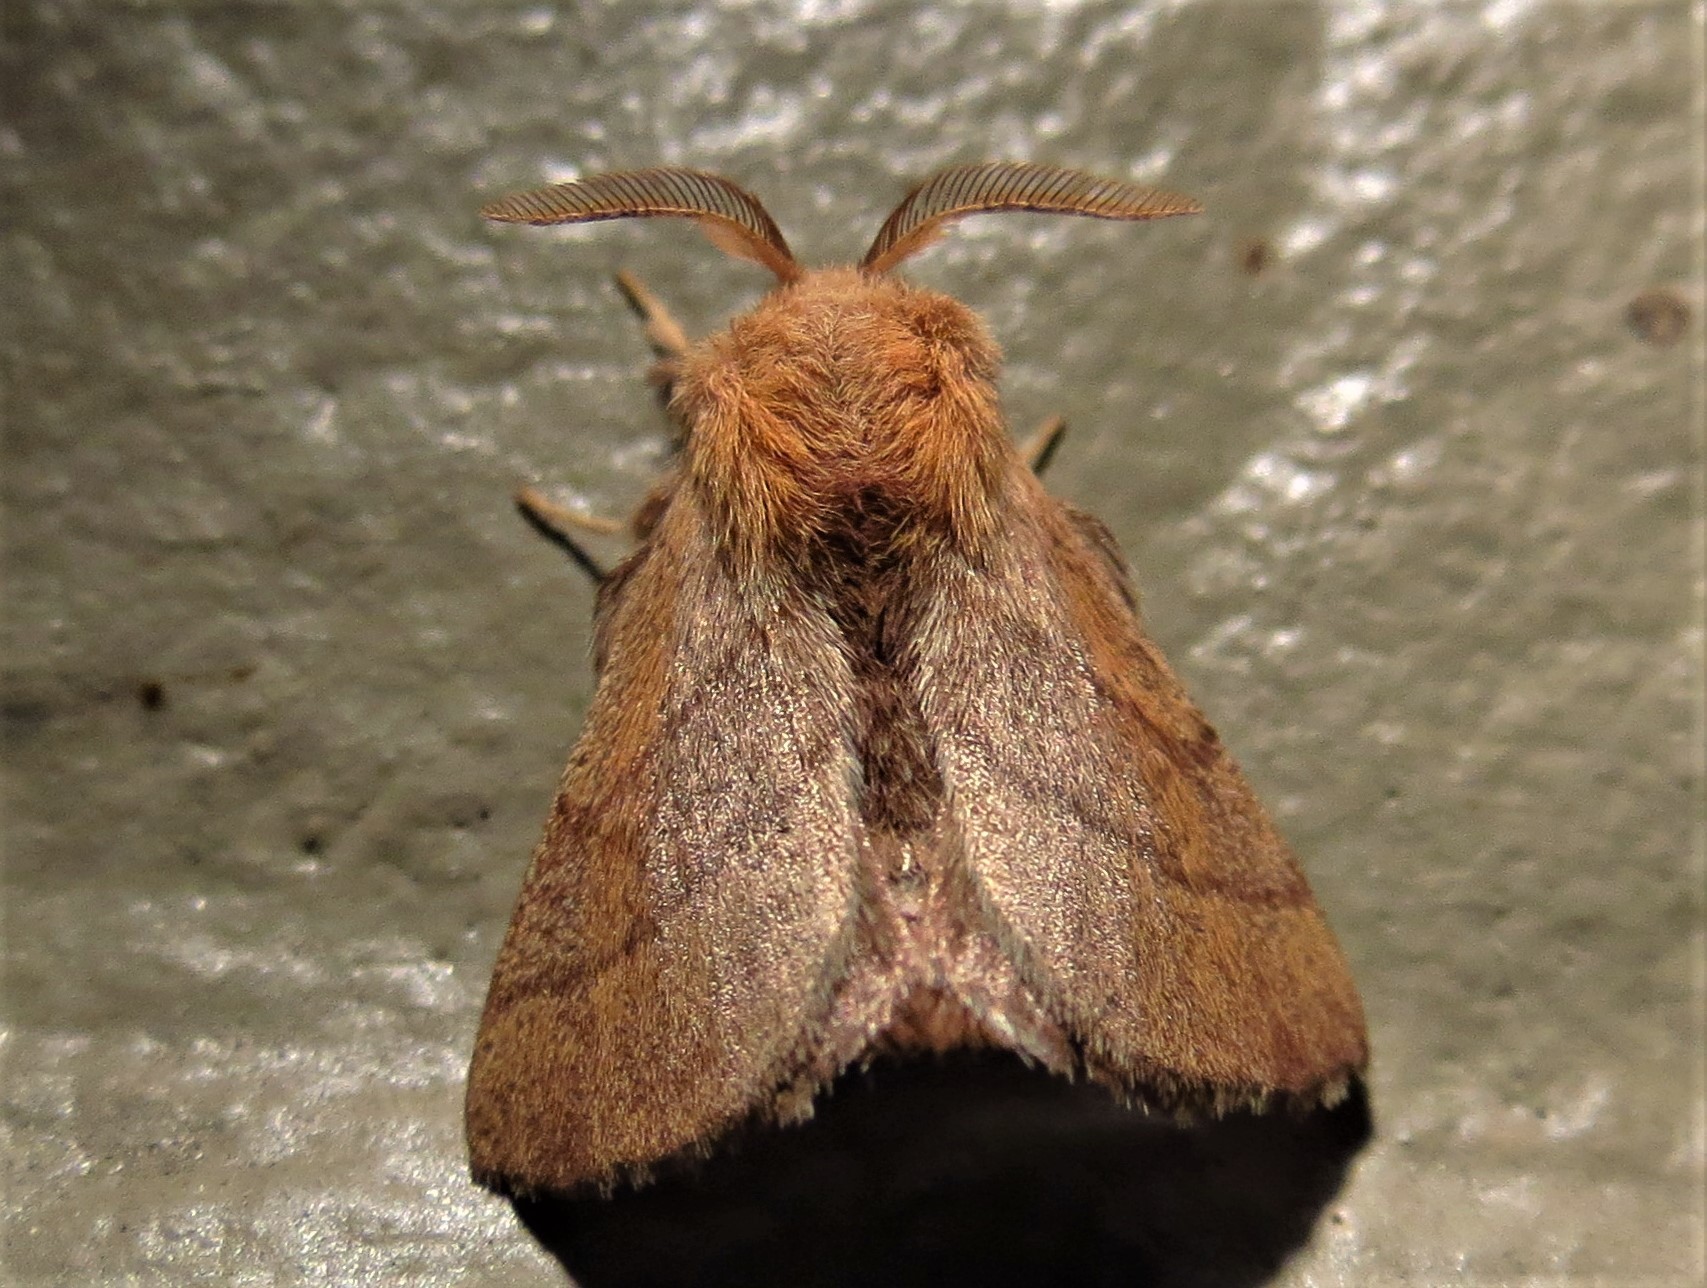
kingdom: Animalia
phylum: Arthropoda
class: Insecta
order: Lepidoptera
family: Lasiocampidae
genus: Malacosoma
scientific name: Malacosoma disstria
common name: Forest tent caterpillar
